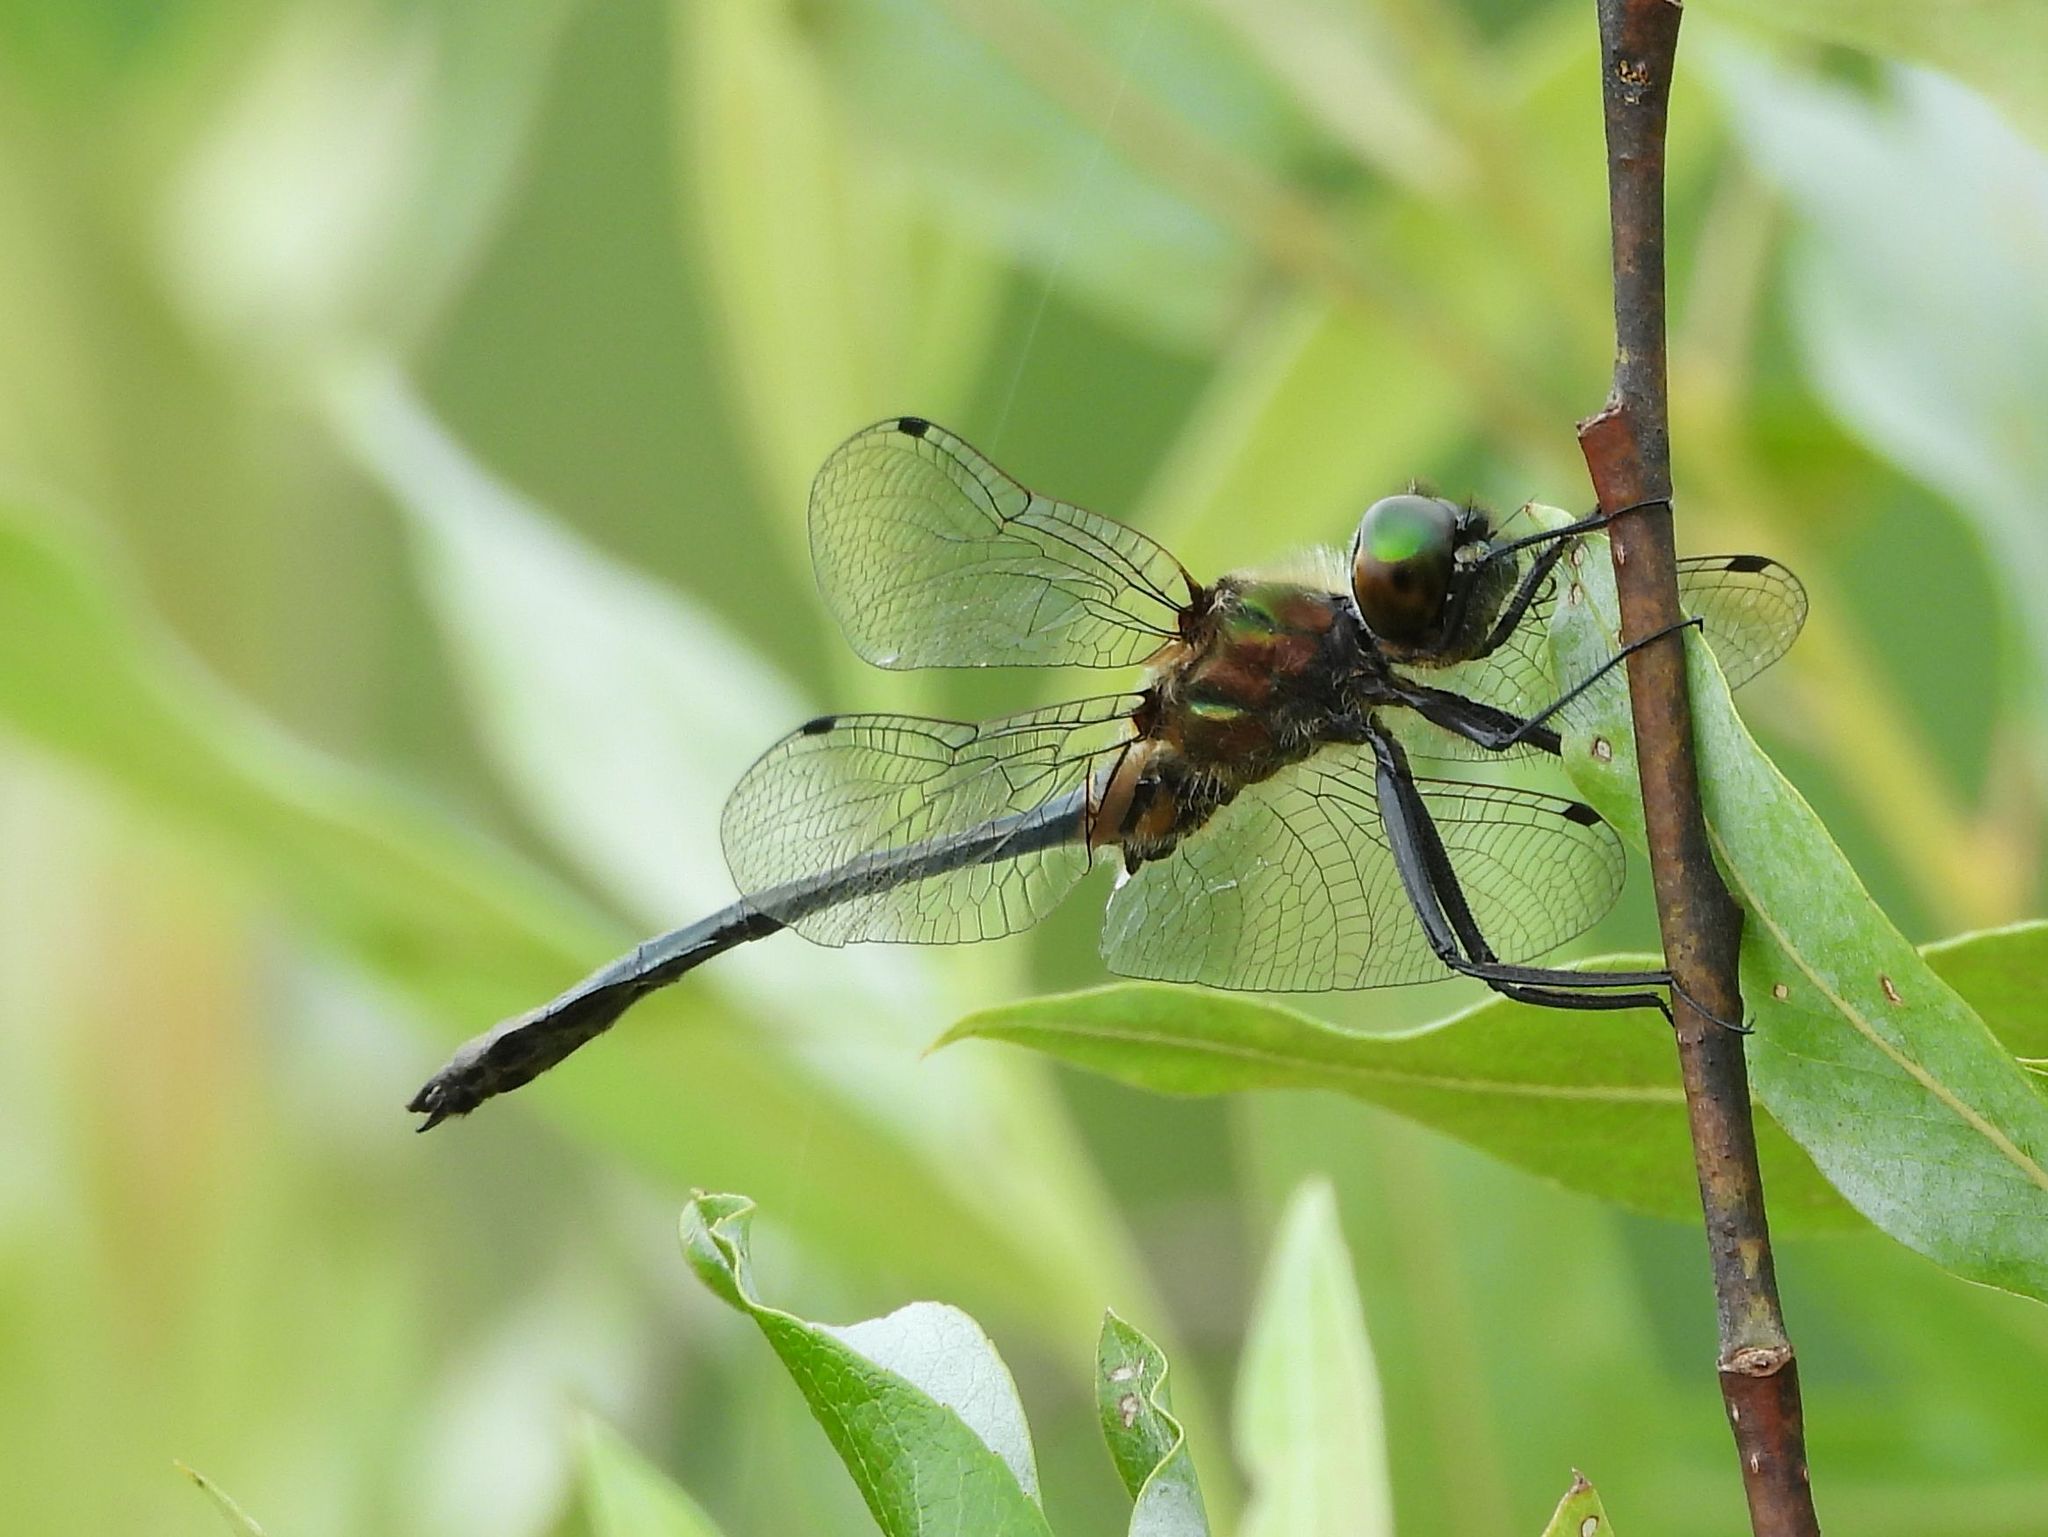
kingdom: Animalia
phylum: Arthropoda
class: Insecta
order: Odonata
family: Corduliidae
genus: Dorocordulia
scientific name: Dorocordulia libera
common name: Racket-tailed emerald
